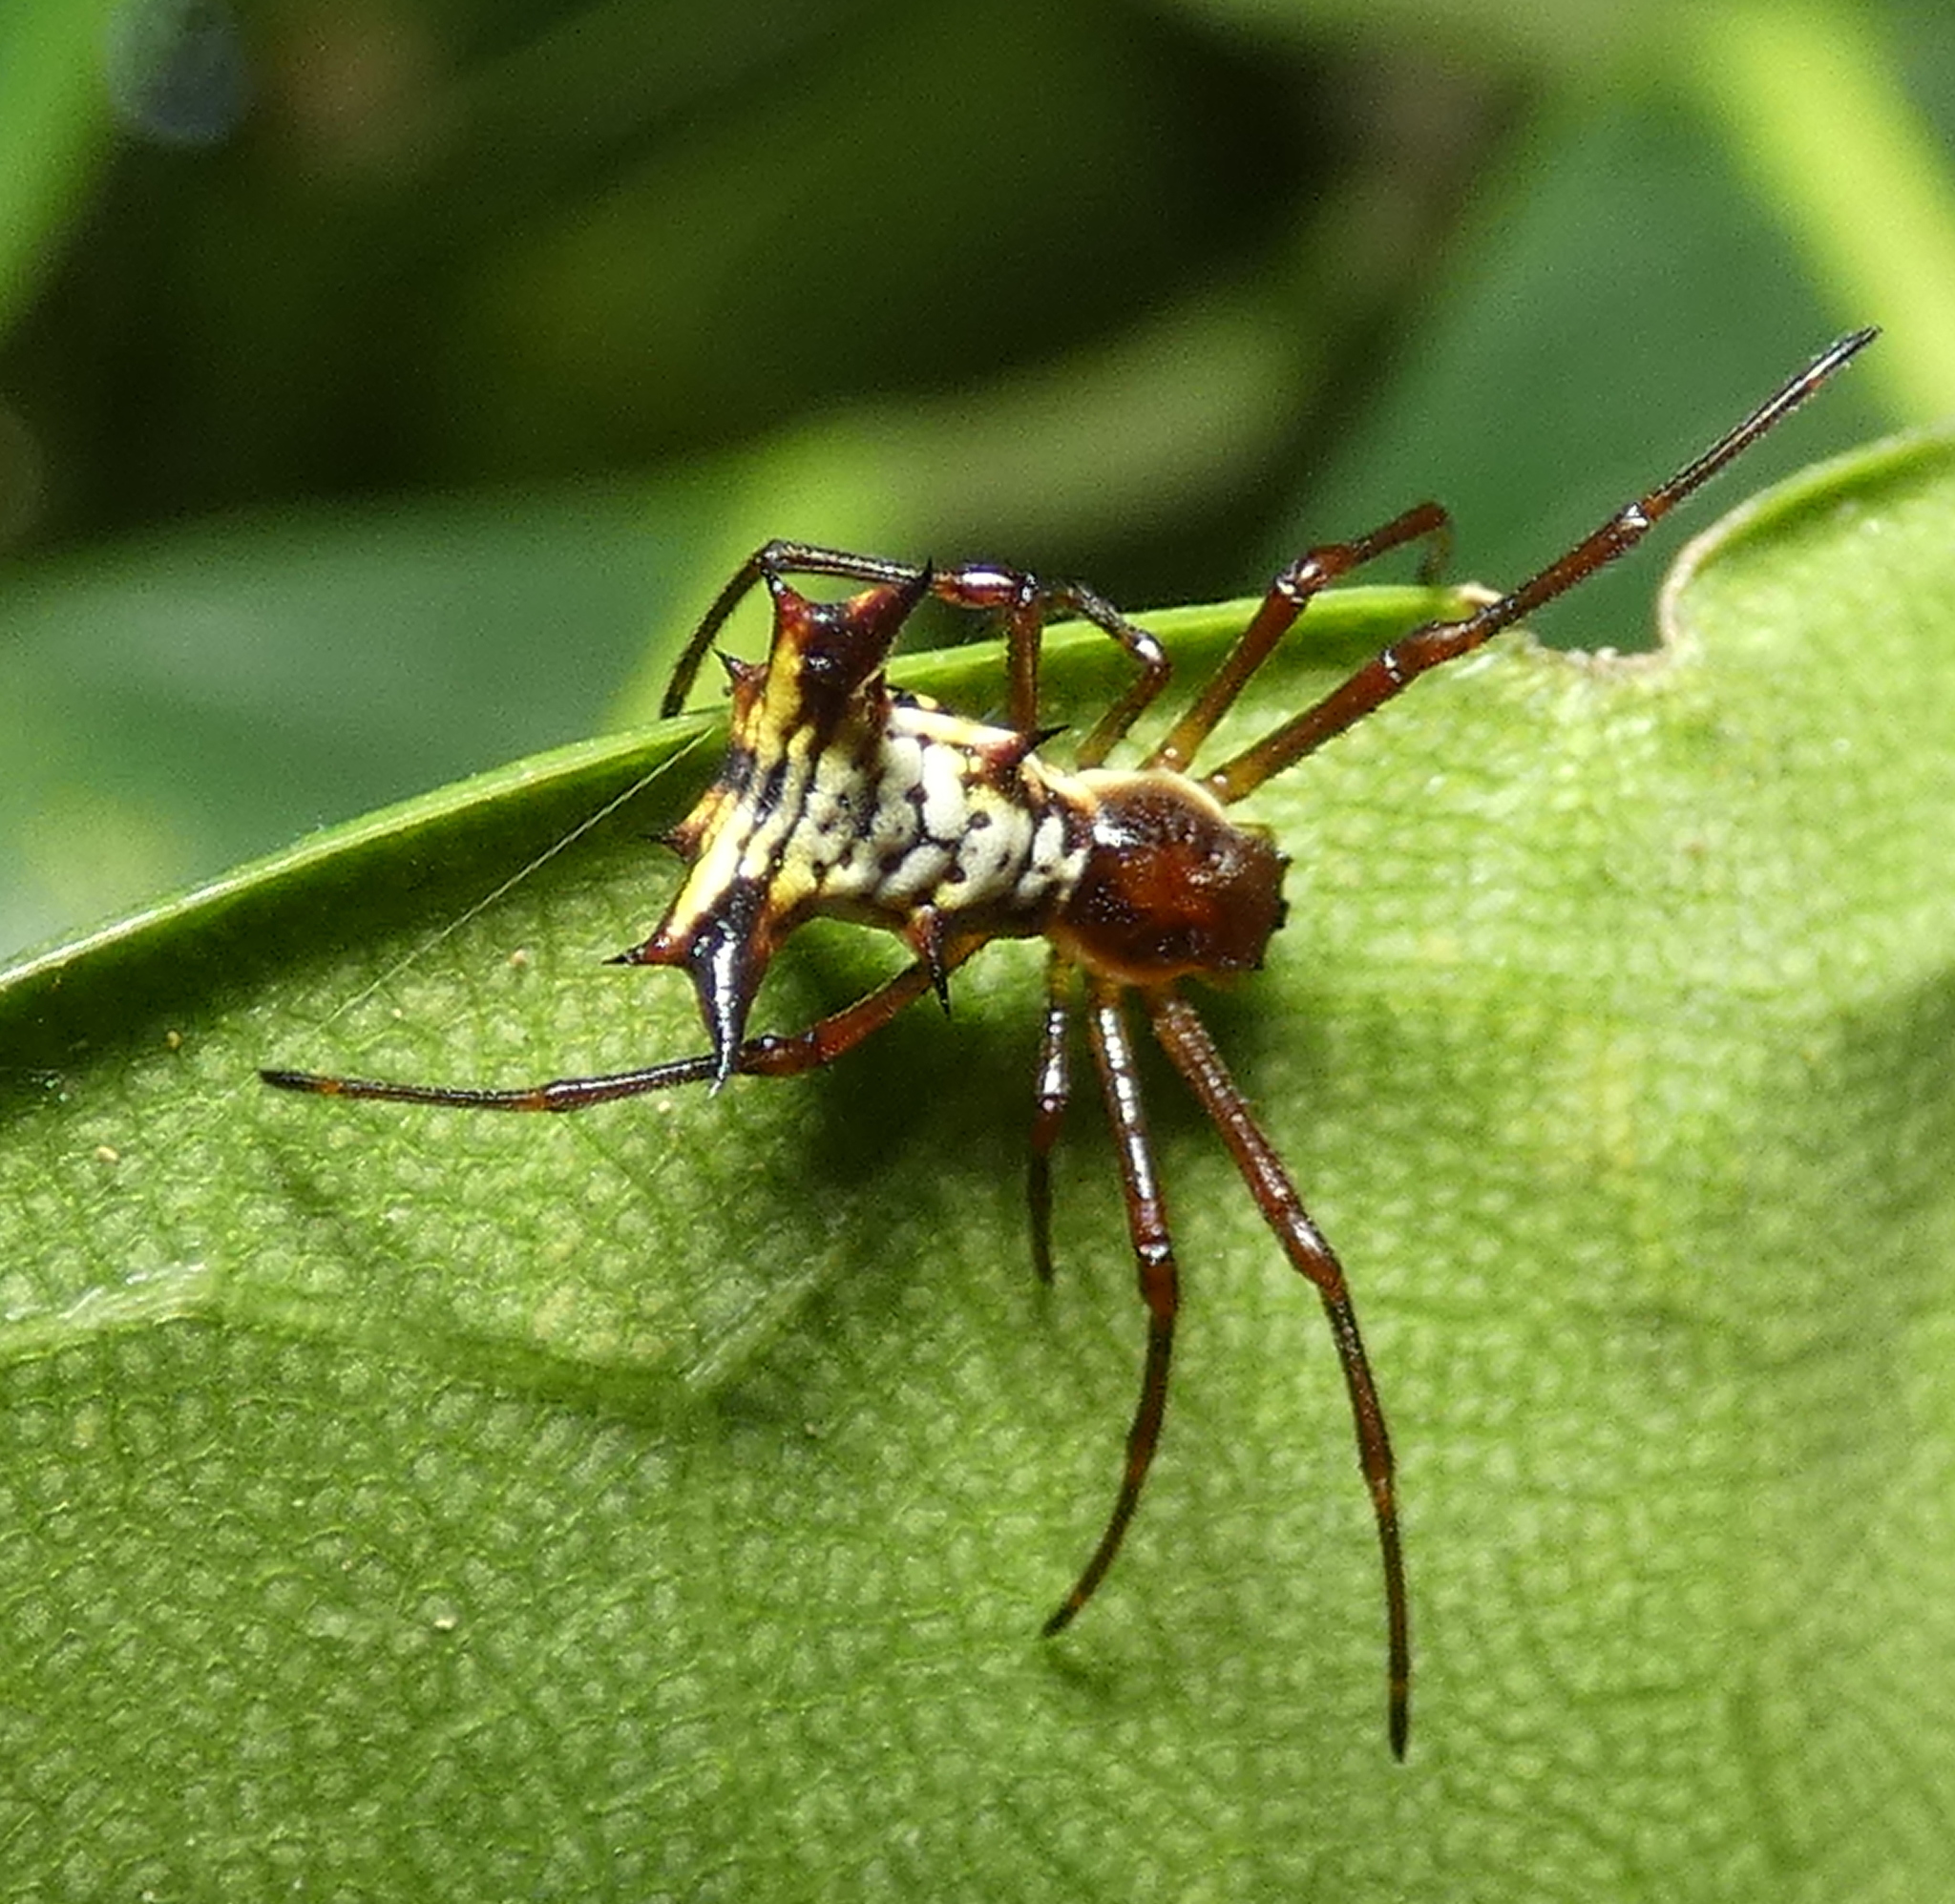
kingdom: Animalia
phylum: Arthropoda
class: Arachnida
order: Araneae
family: Araneidae
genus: Micrathena
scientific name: Micrathena fissispina
